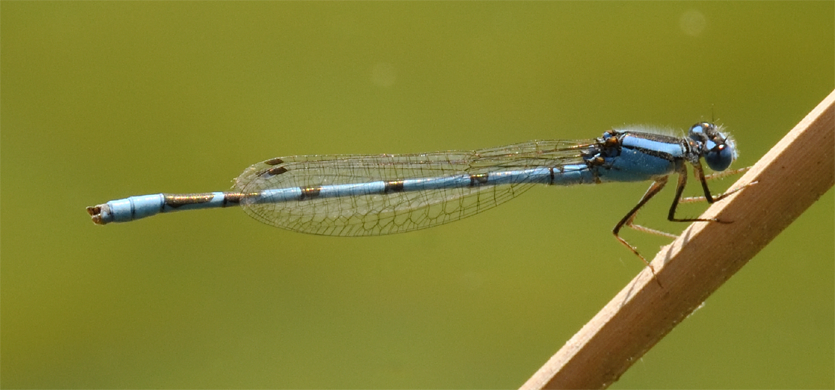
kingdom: Animalia
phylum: Arthropoda
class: Insecta
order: Odonata
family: Coenagrionidae
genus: Enallagma
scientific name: Enallagma civile
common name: Damselfly
